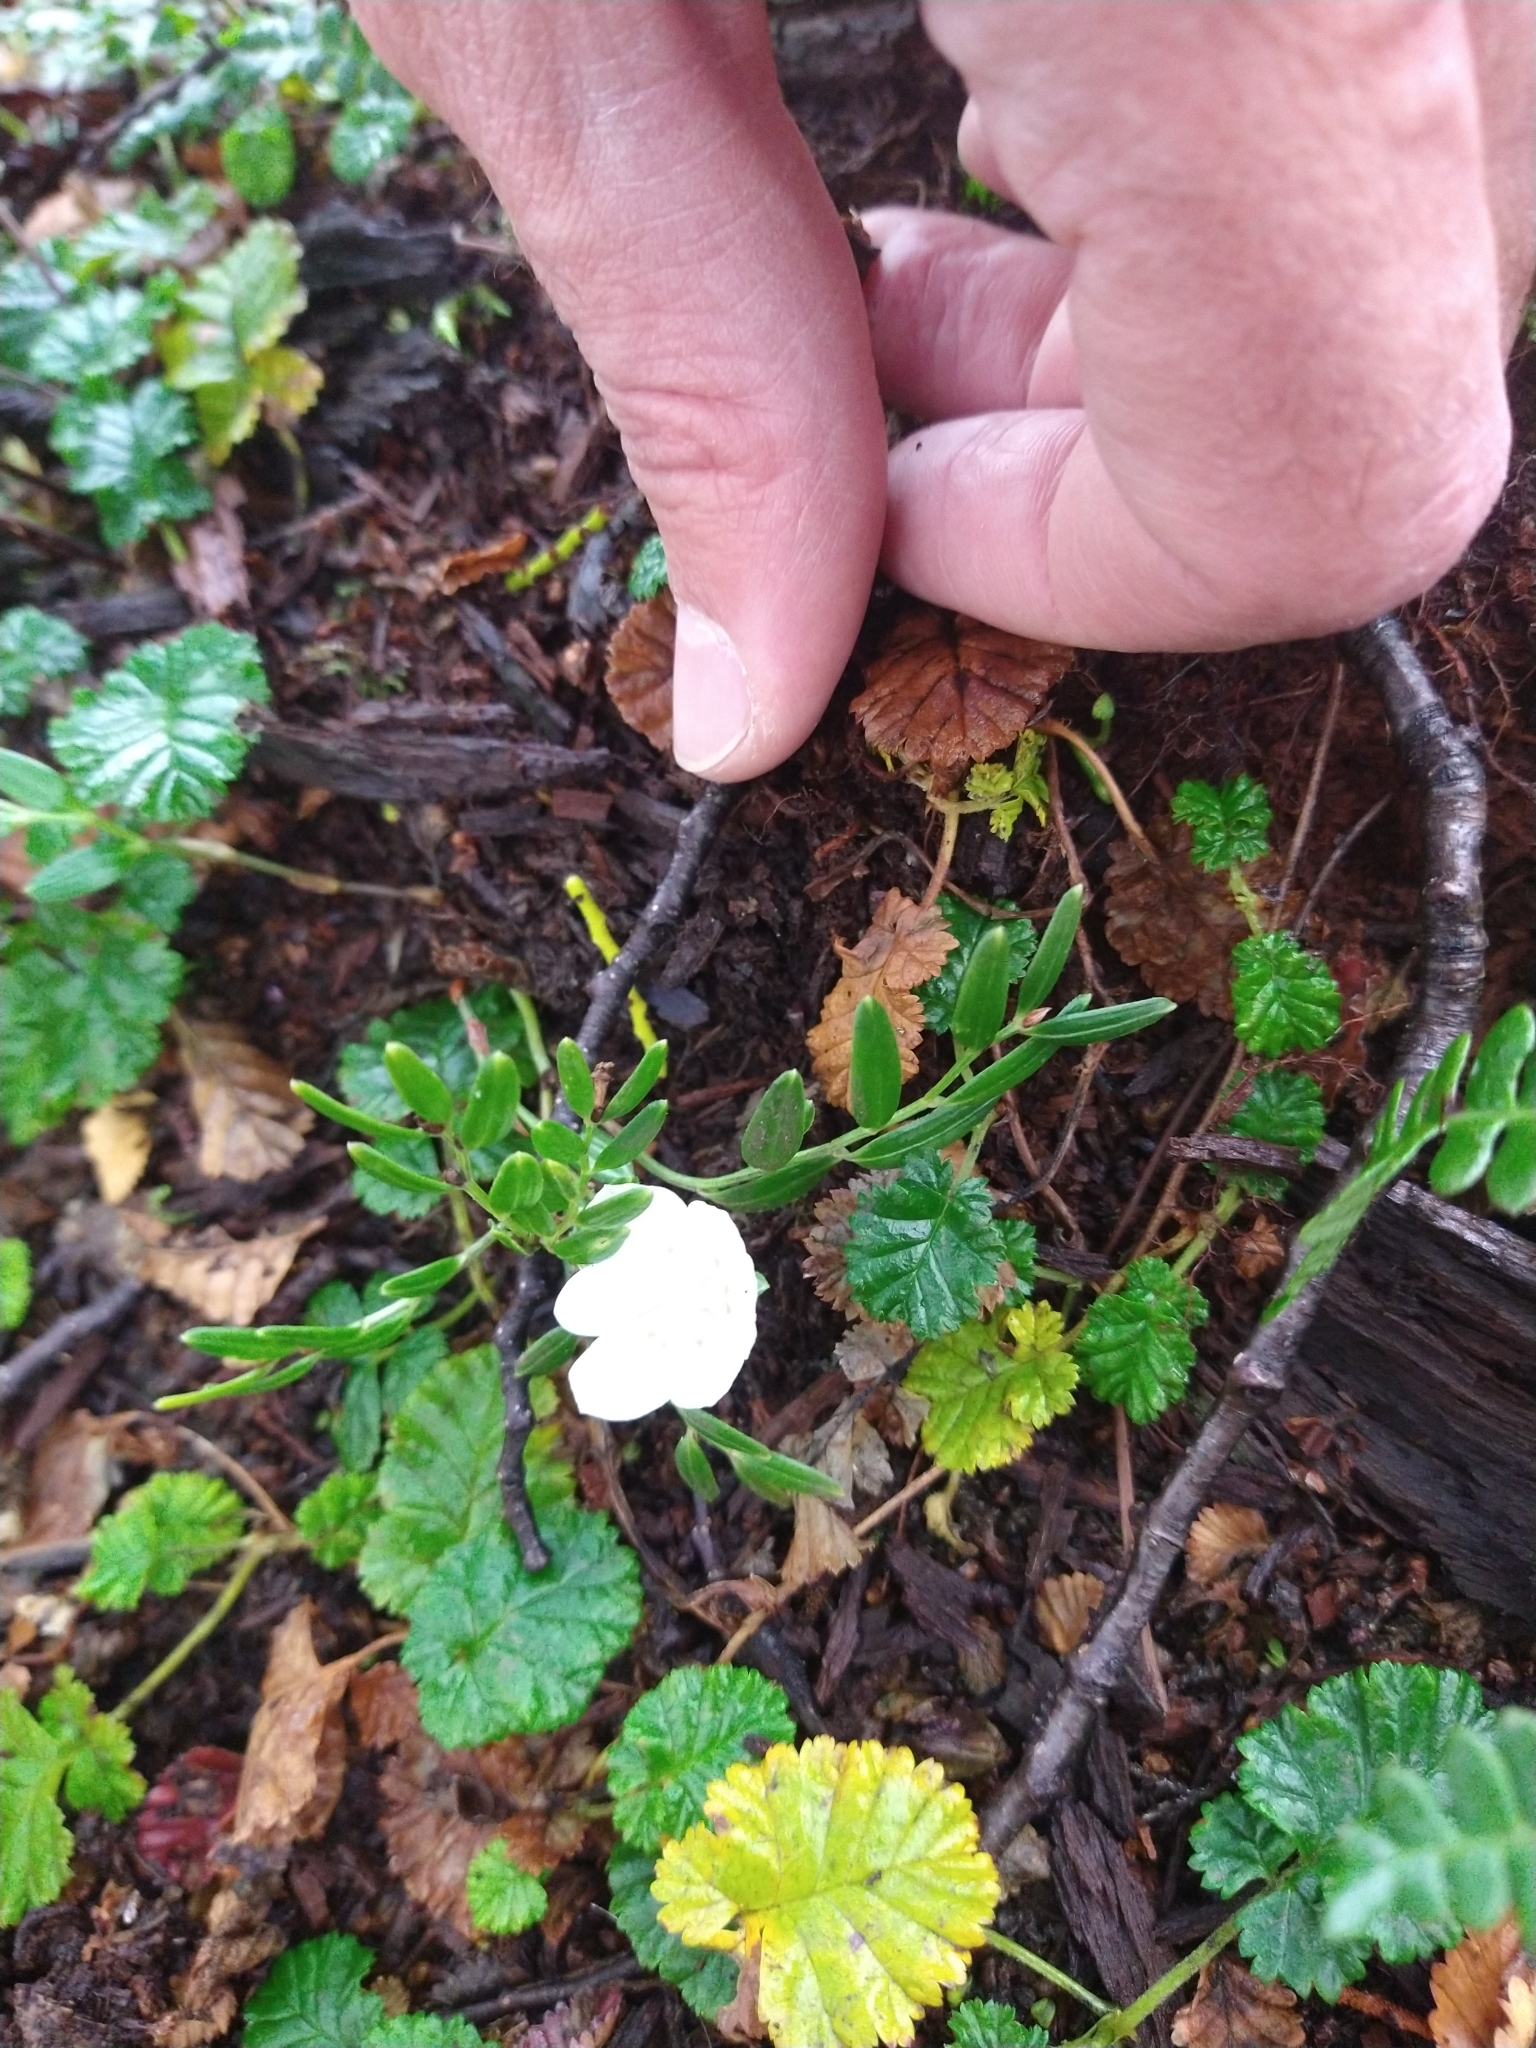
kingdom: Plantae
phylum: Tracheophyta
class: Liliopsida
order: Liliales
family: Alstroemeriaceae
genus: Luzuriaga
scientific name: Luzuriaga marginata
